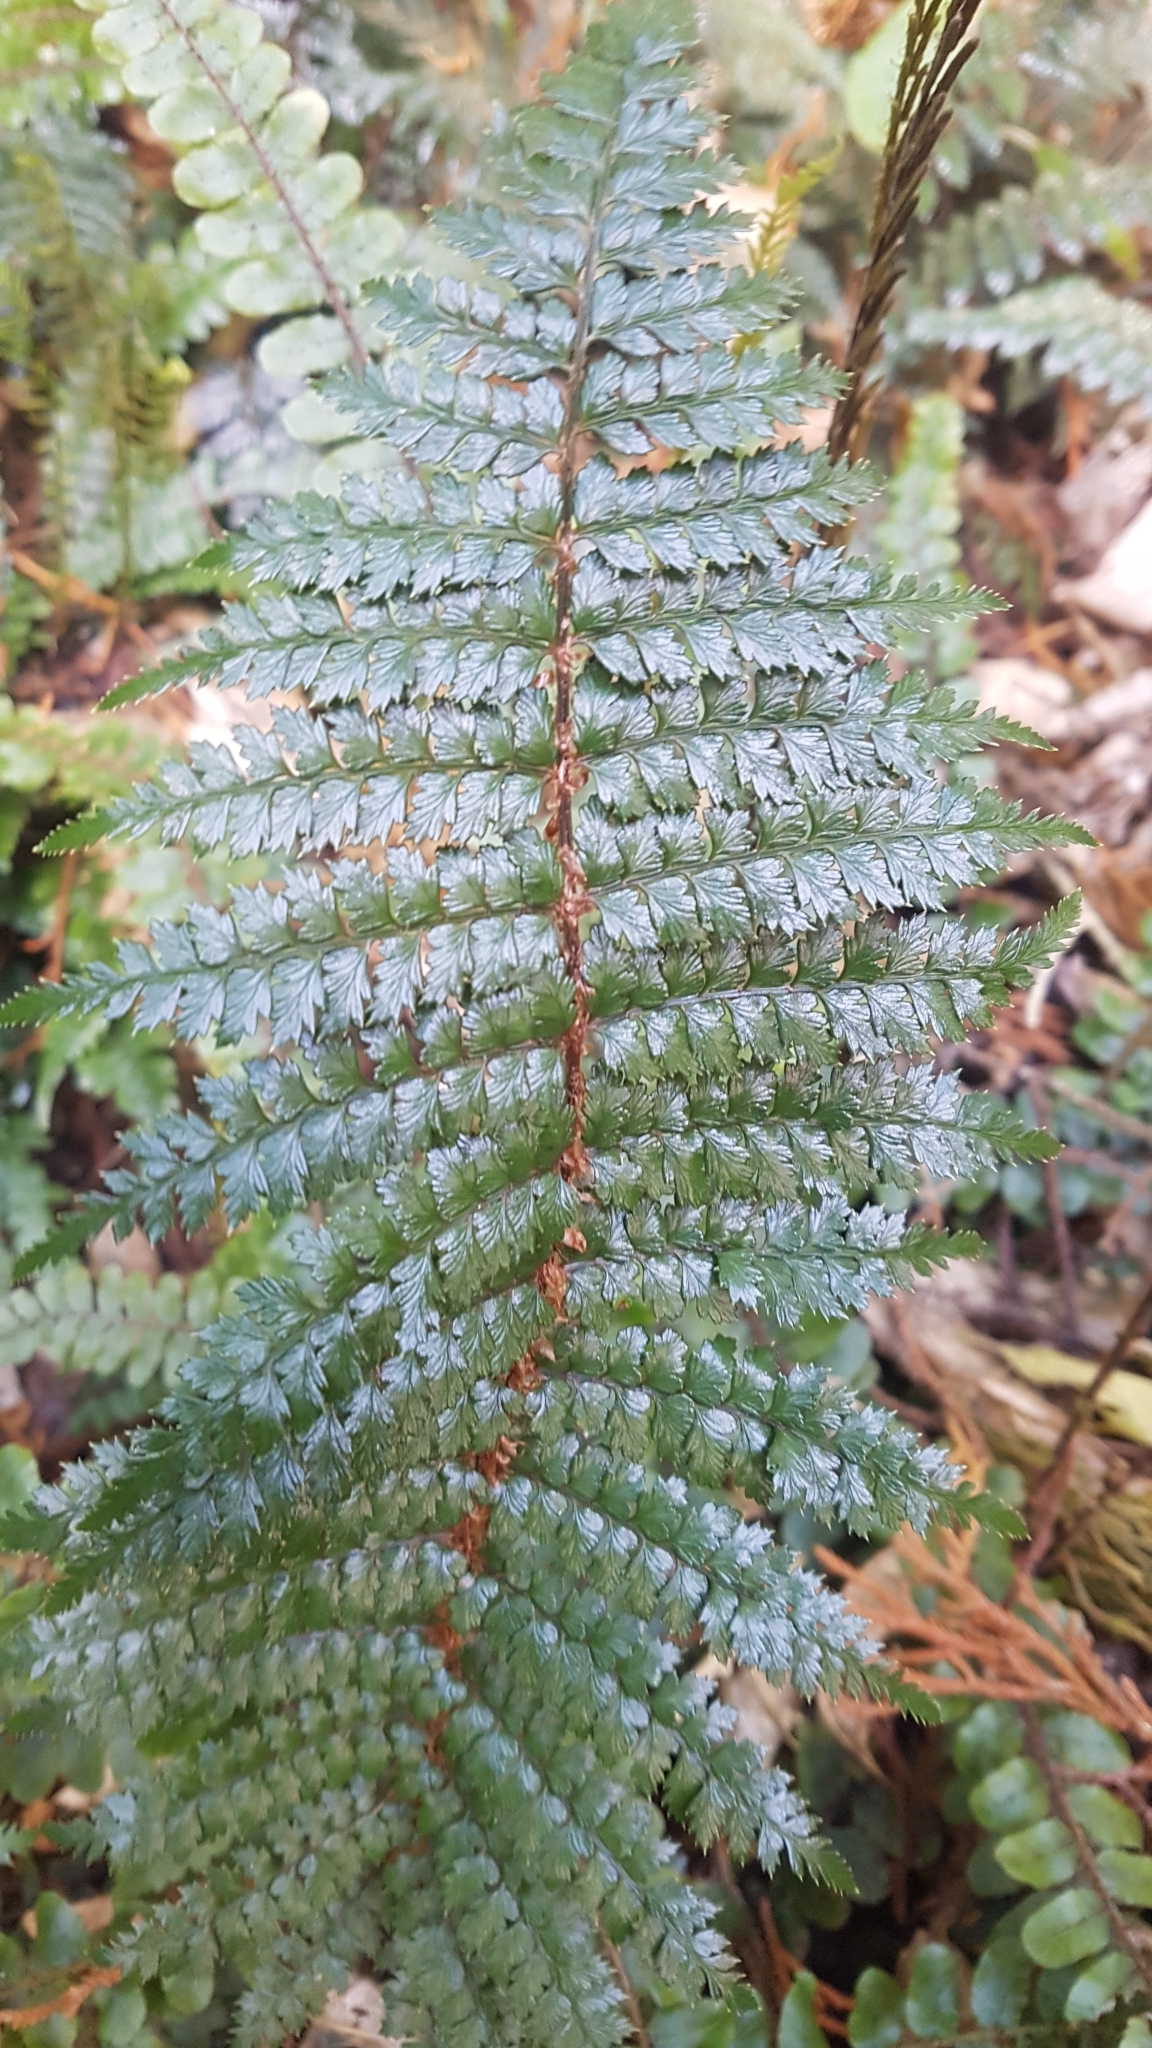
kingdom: Plantae
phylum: Tracheophyta
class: Polypodiopsida
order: Polypodiales
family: Dryopteridaceae
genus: Polystichum
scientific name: Polystichum vestitum
